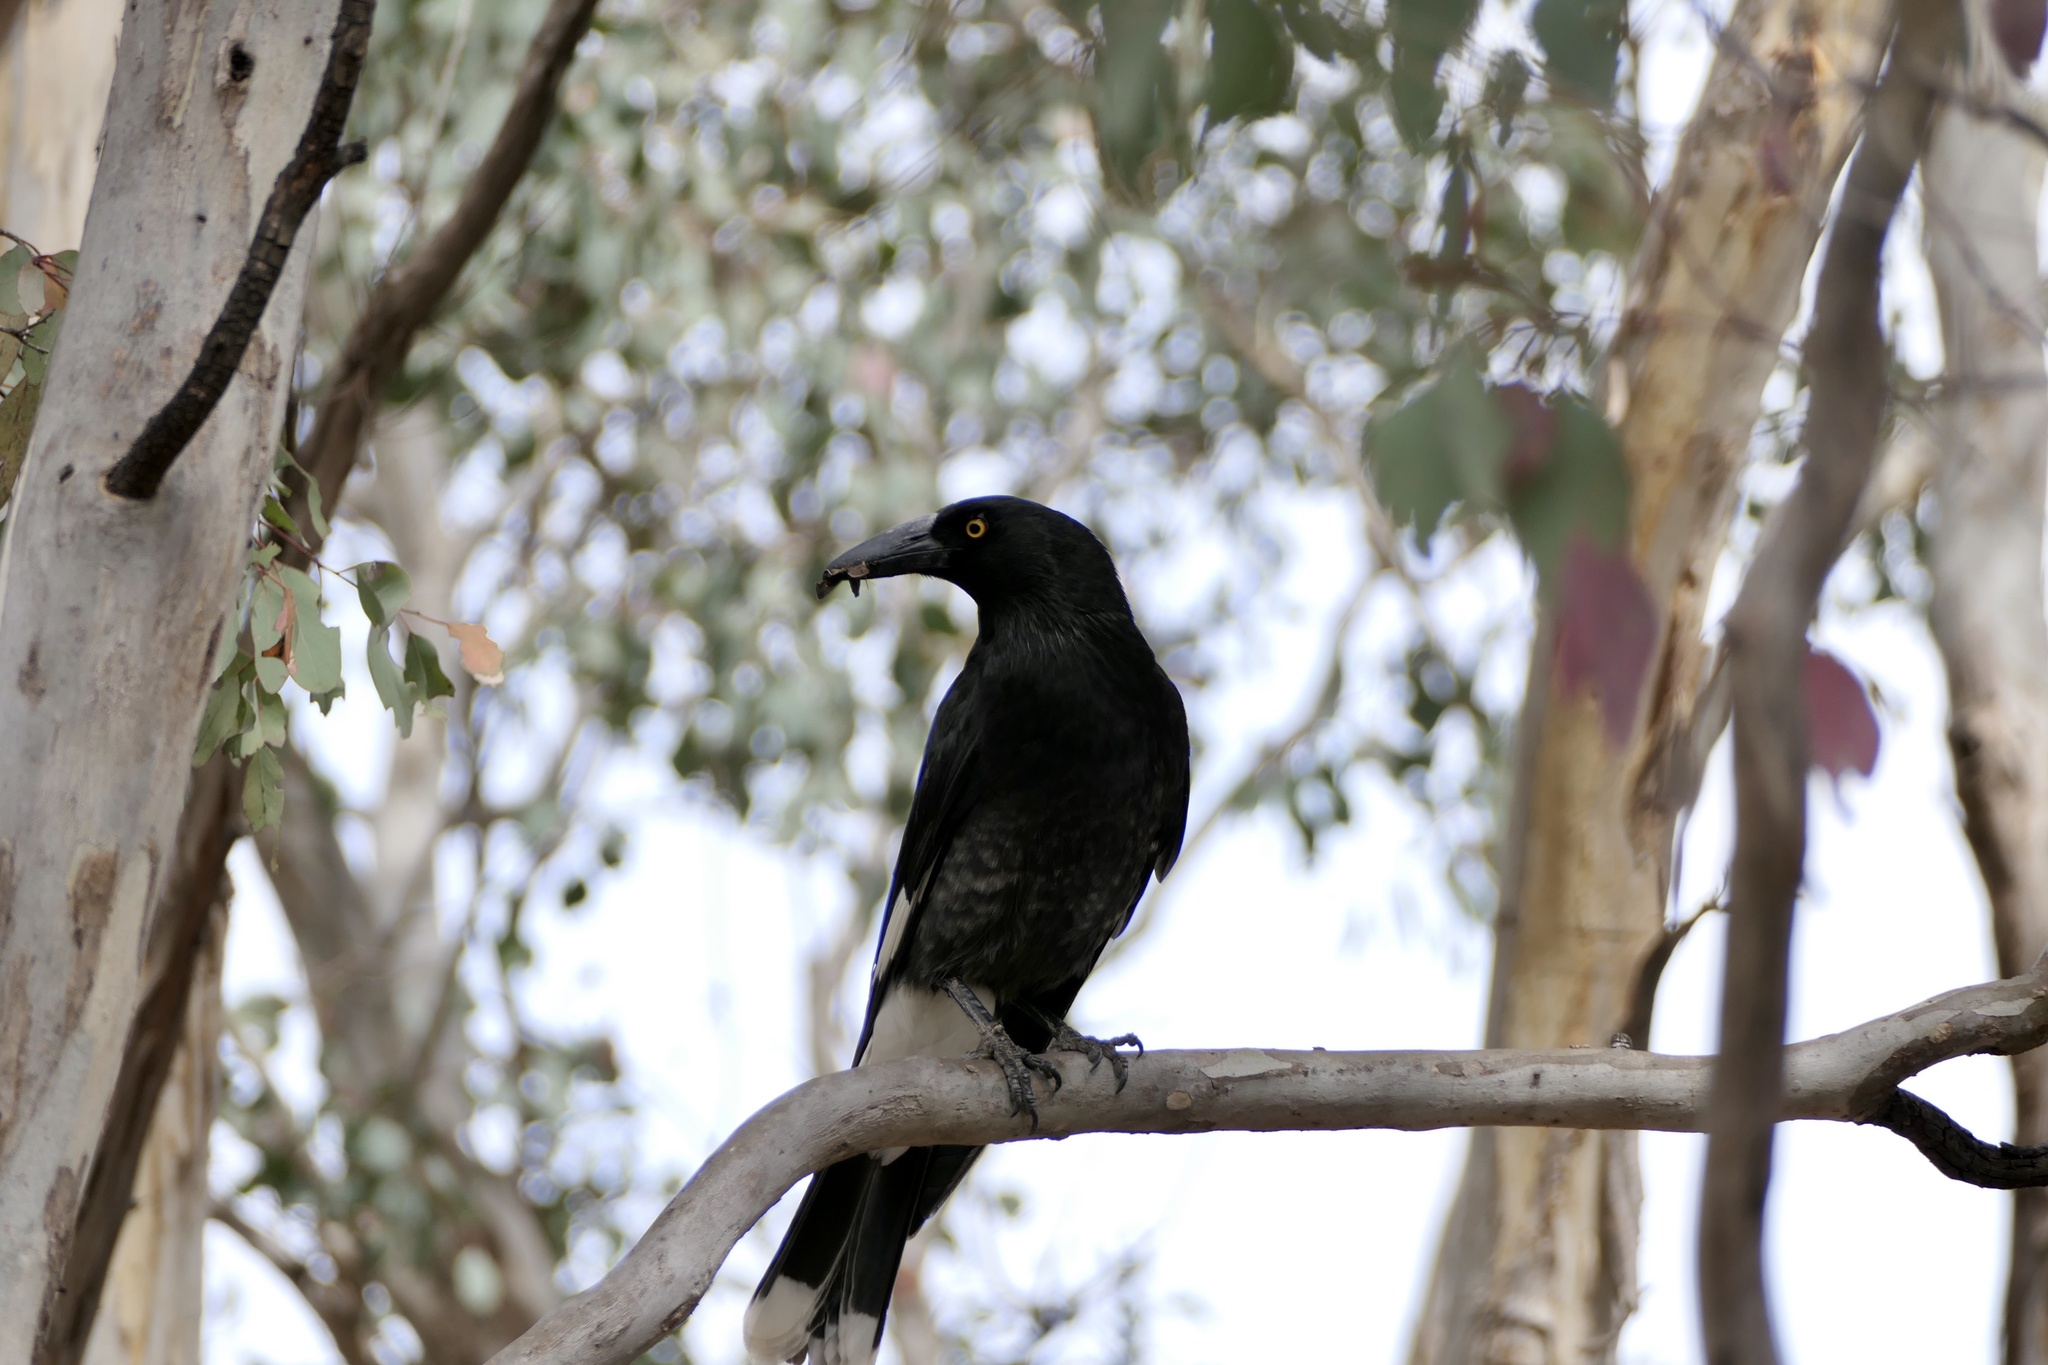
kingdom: Animalia
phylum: Chordata
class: Aves
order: Passeriformes
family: Cracticidae
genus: Strepera
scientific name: Strepera graculina
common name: Pied currawong
